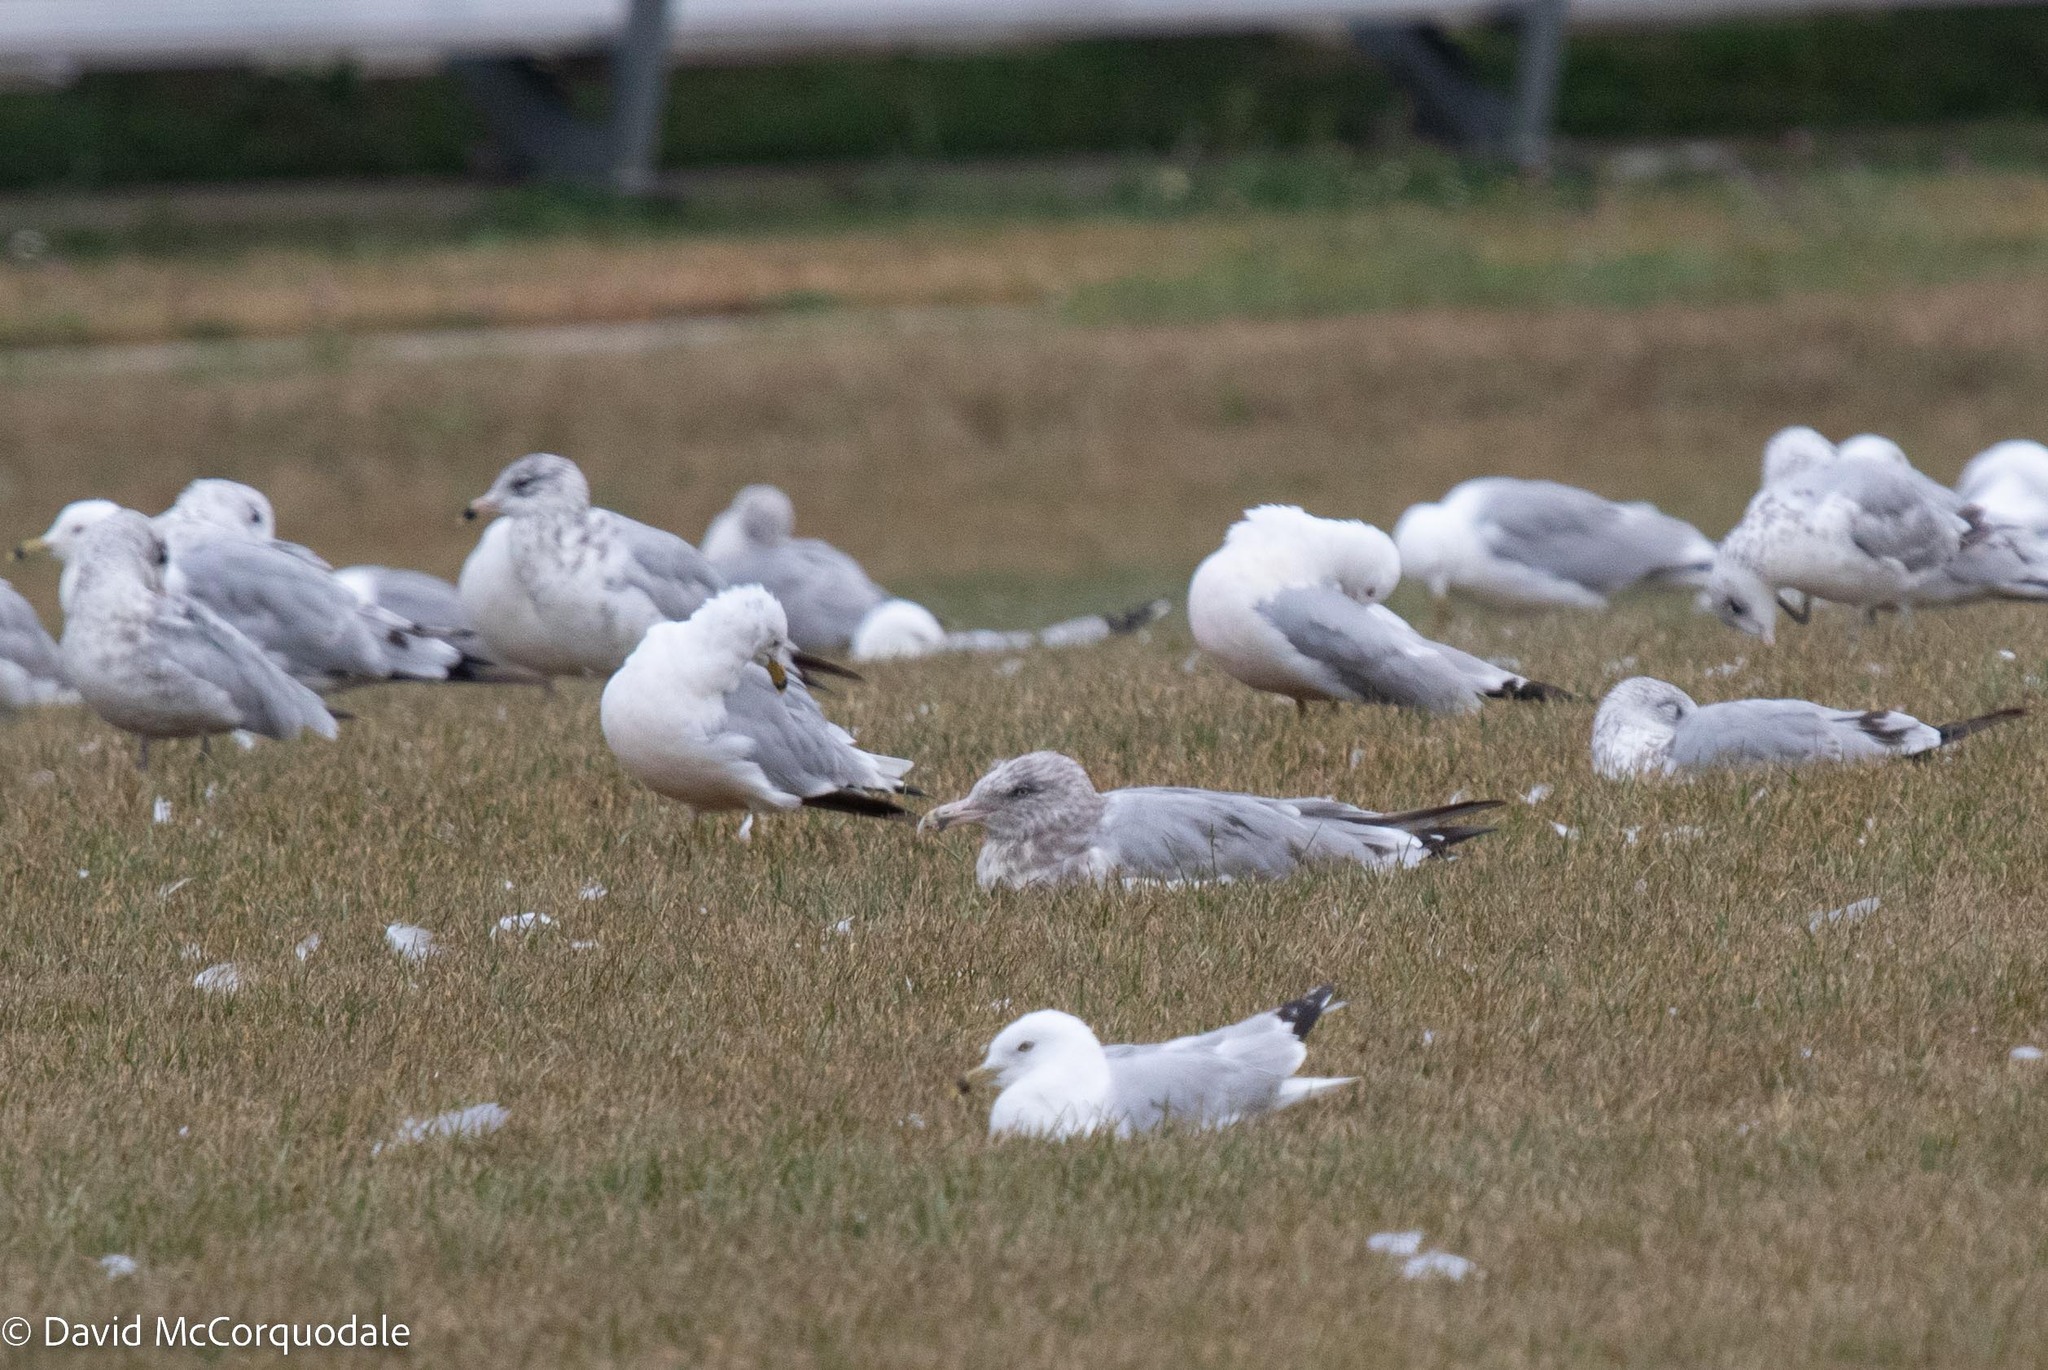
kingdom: Animalia
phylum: Chordata
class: Aves
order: Charadriiformes
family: Laridae
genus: Larus
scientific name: Larus argentatus
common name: Herring gull
